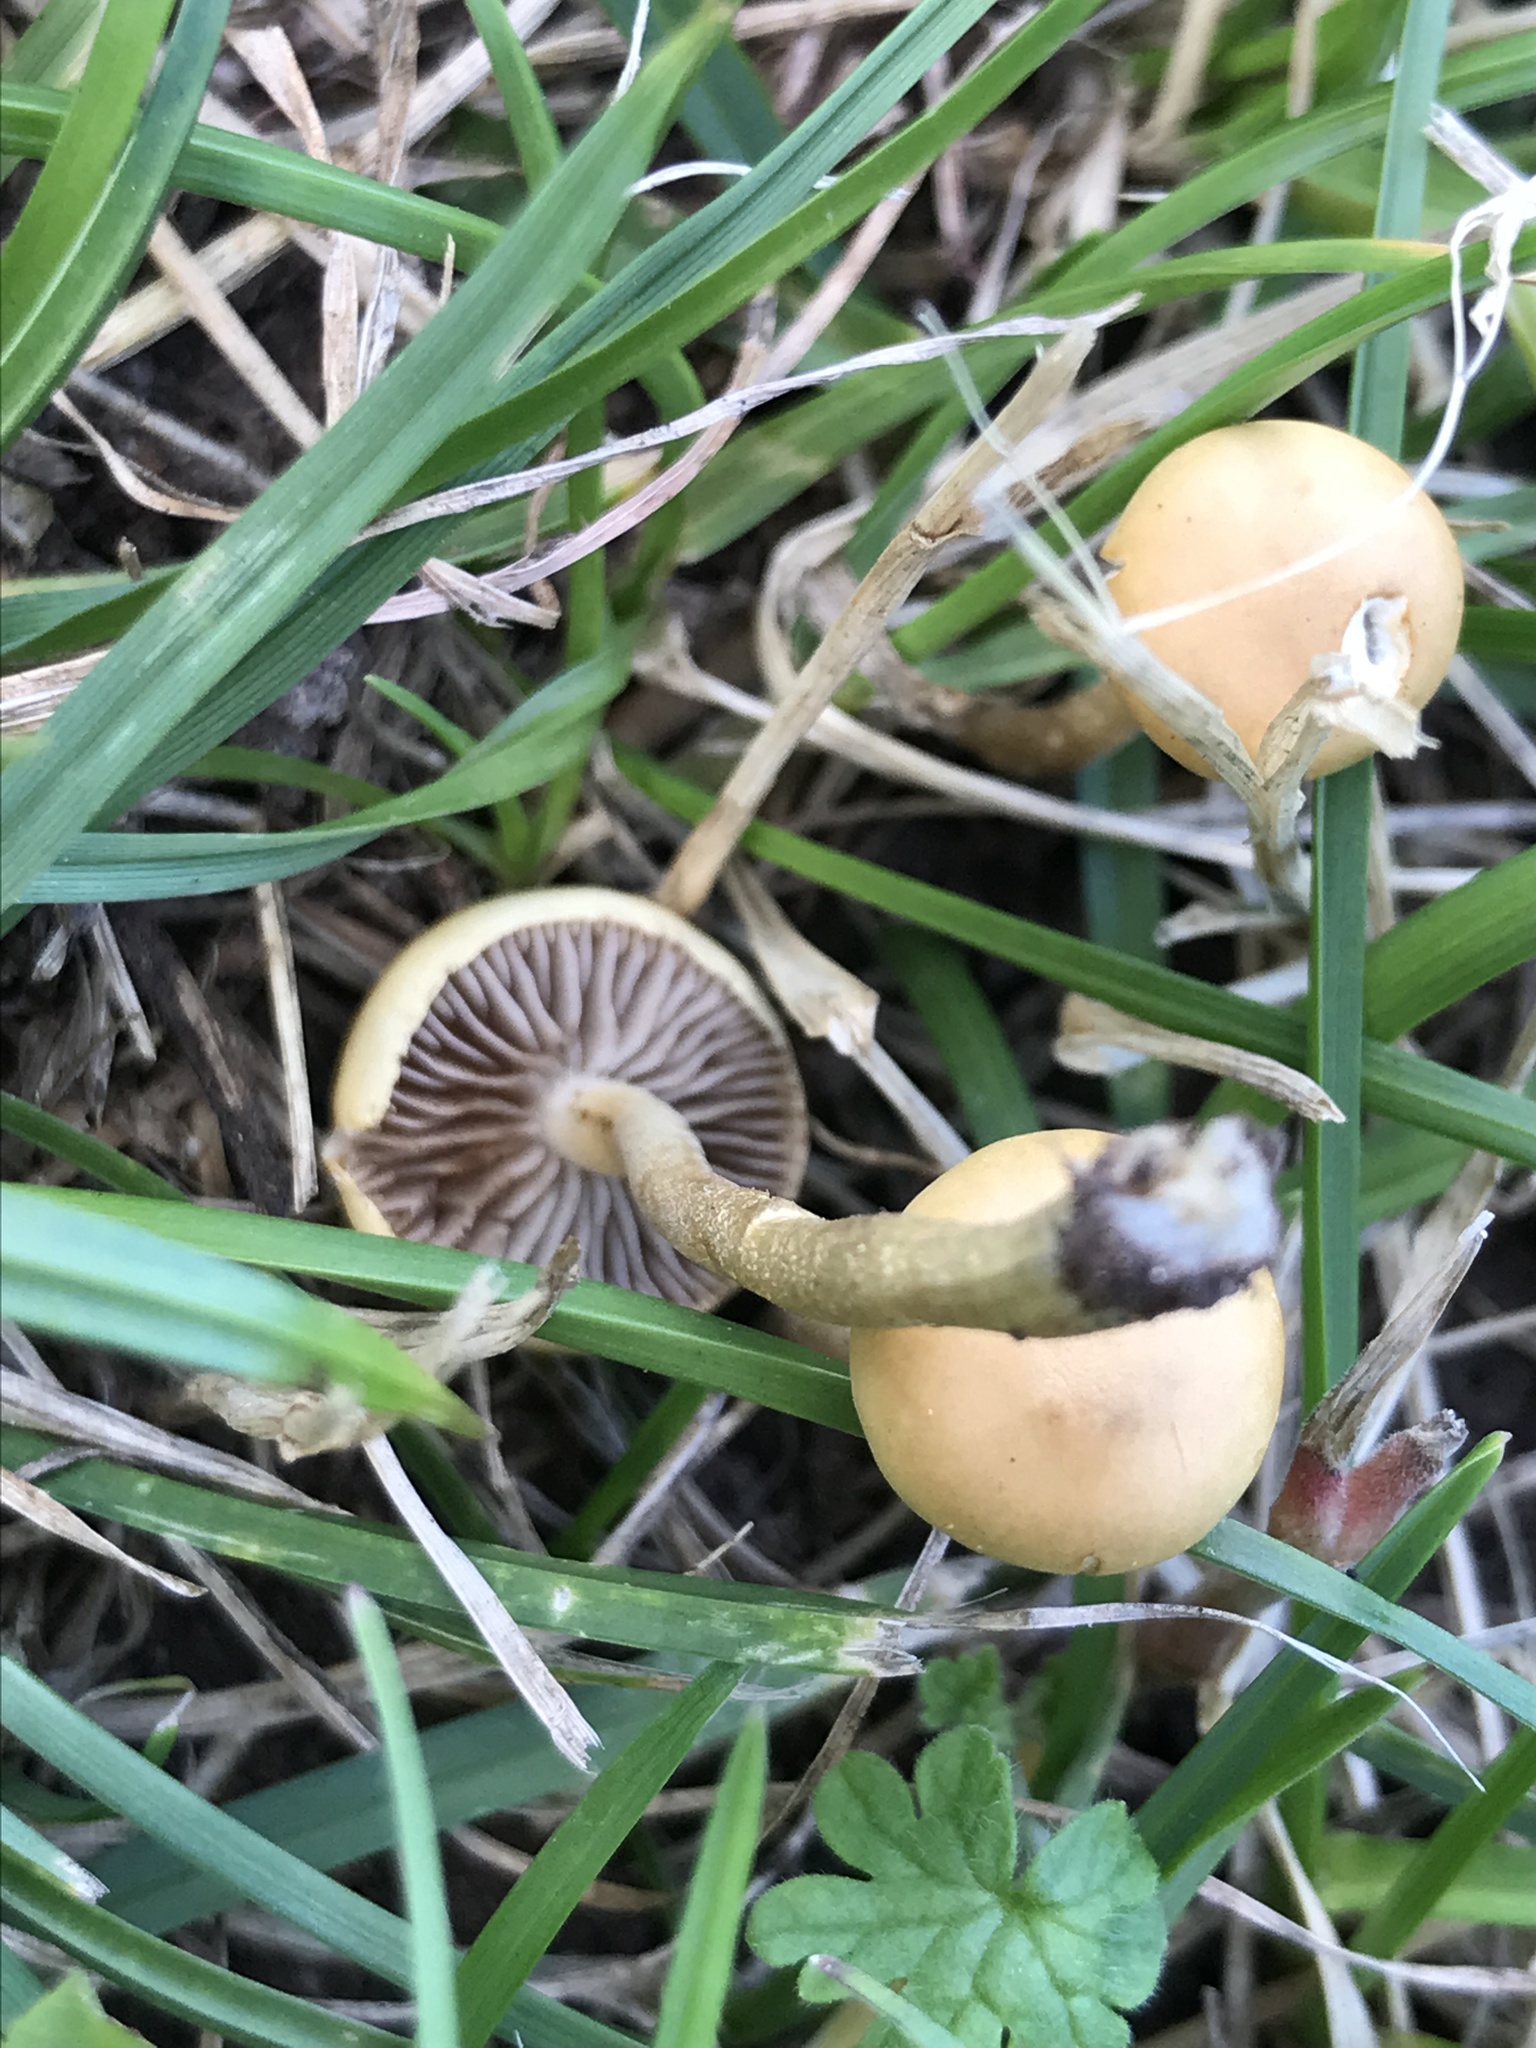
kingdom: Fungi
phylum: Basidiomycota
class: Agaricomycetes
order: Agaricales
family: Strophariaceae
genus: Agrocybe
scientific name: Agrocybe pediades
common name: Common fieldcap
